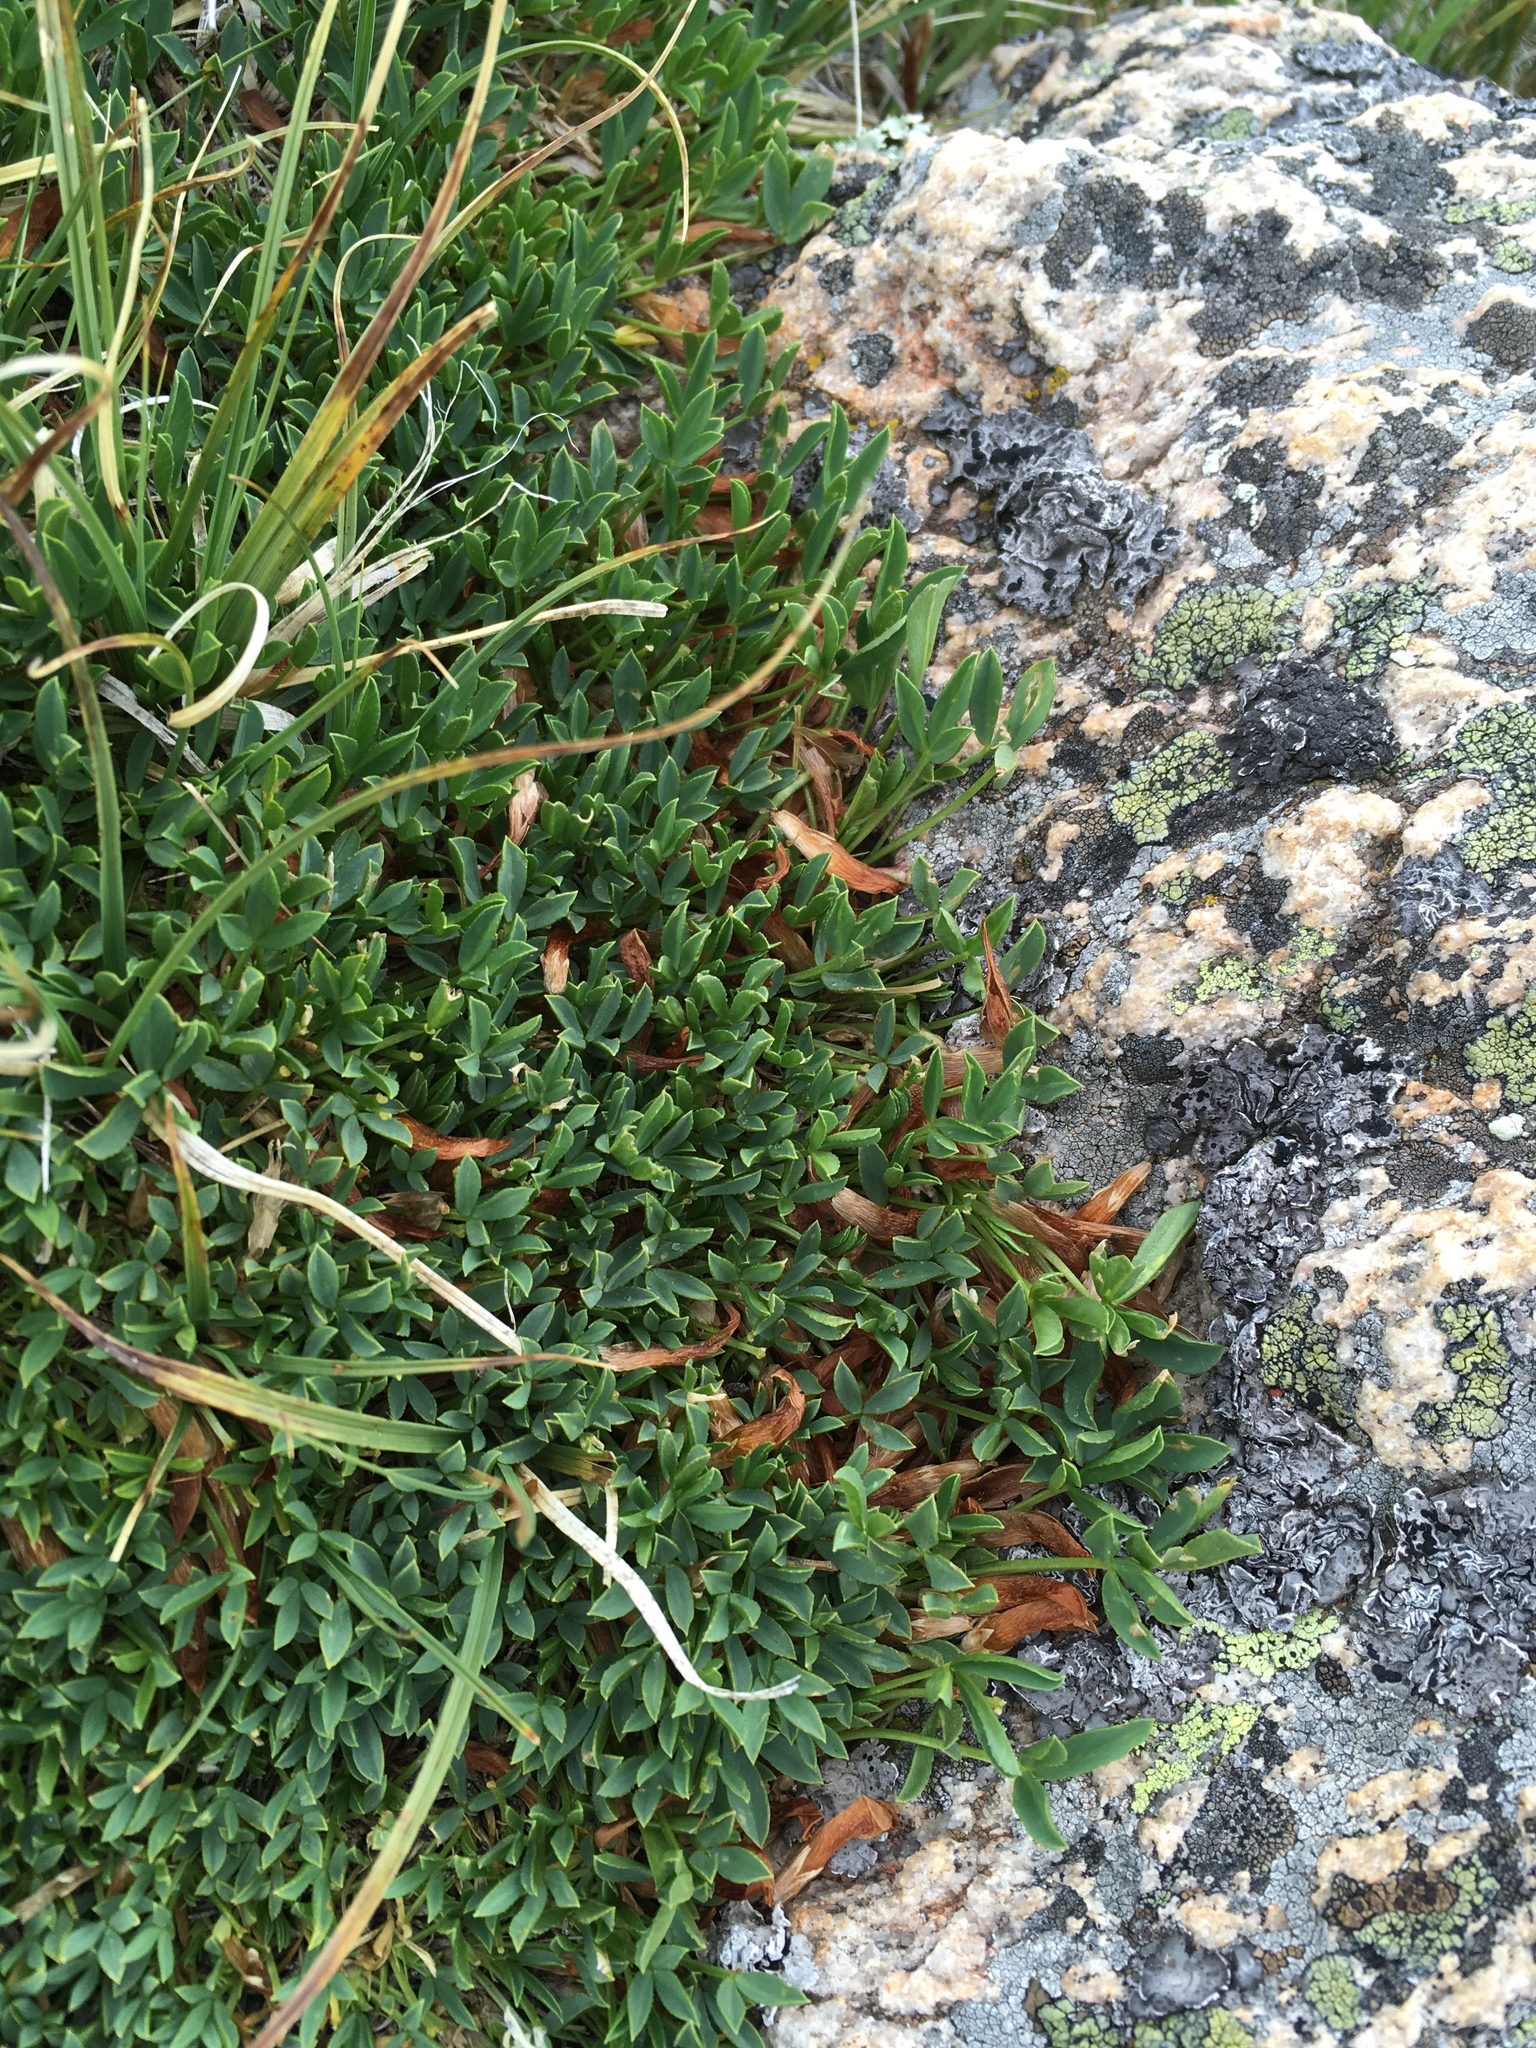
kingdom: Plantae
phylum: Tracheophyta
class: Magnoliopsida
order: Fabales
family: Fabaceae
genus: Trifolium
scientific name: Trifolium nanum
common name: Tundra clover
